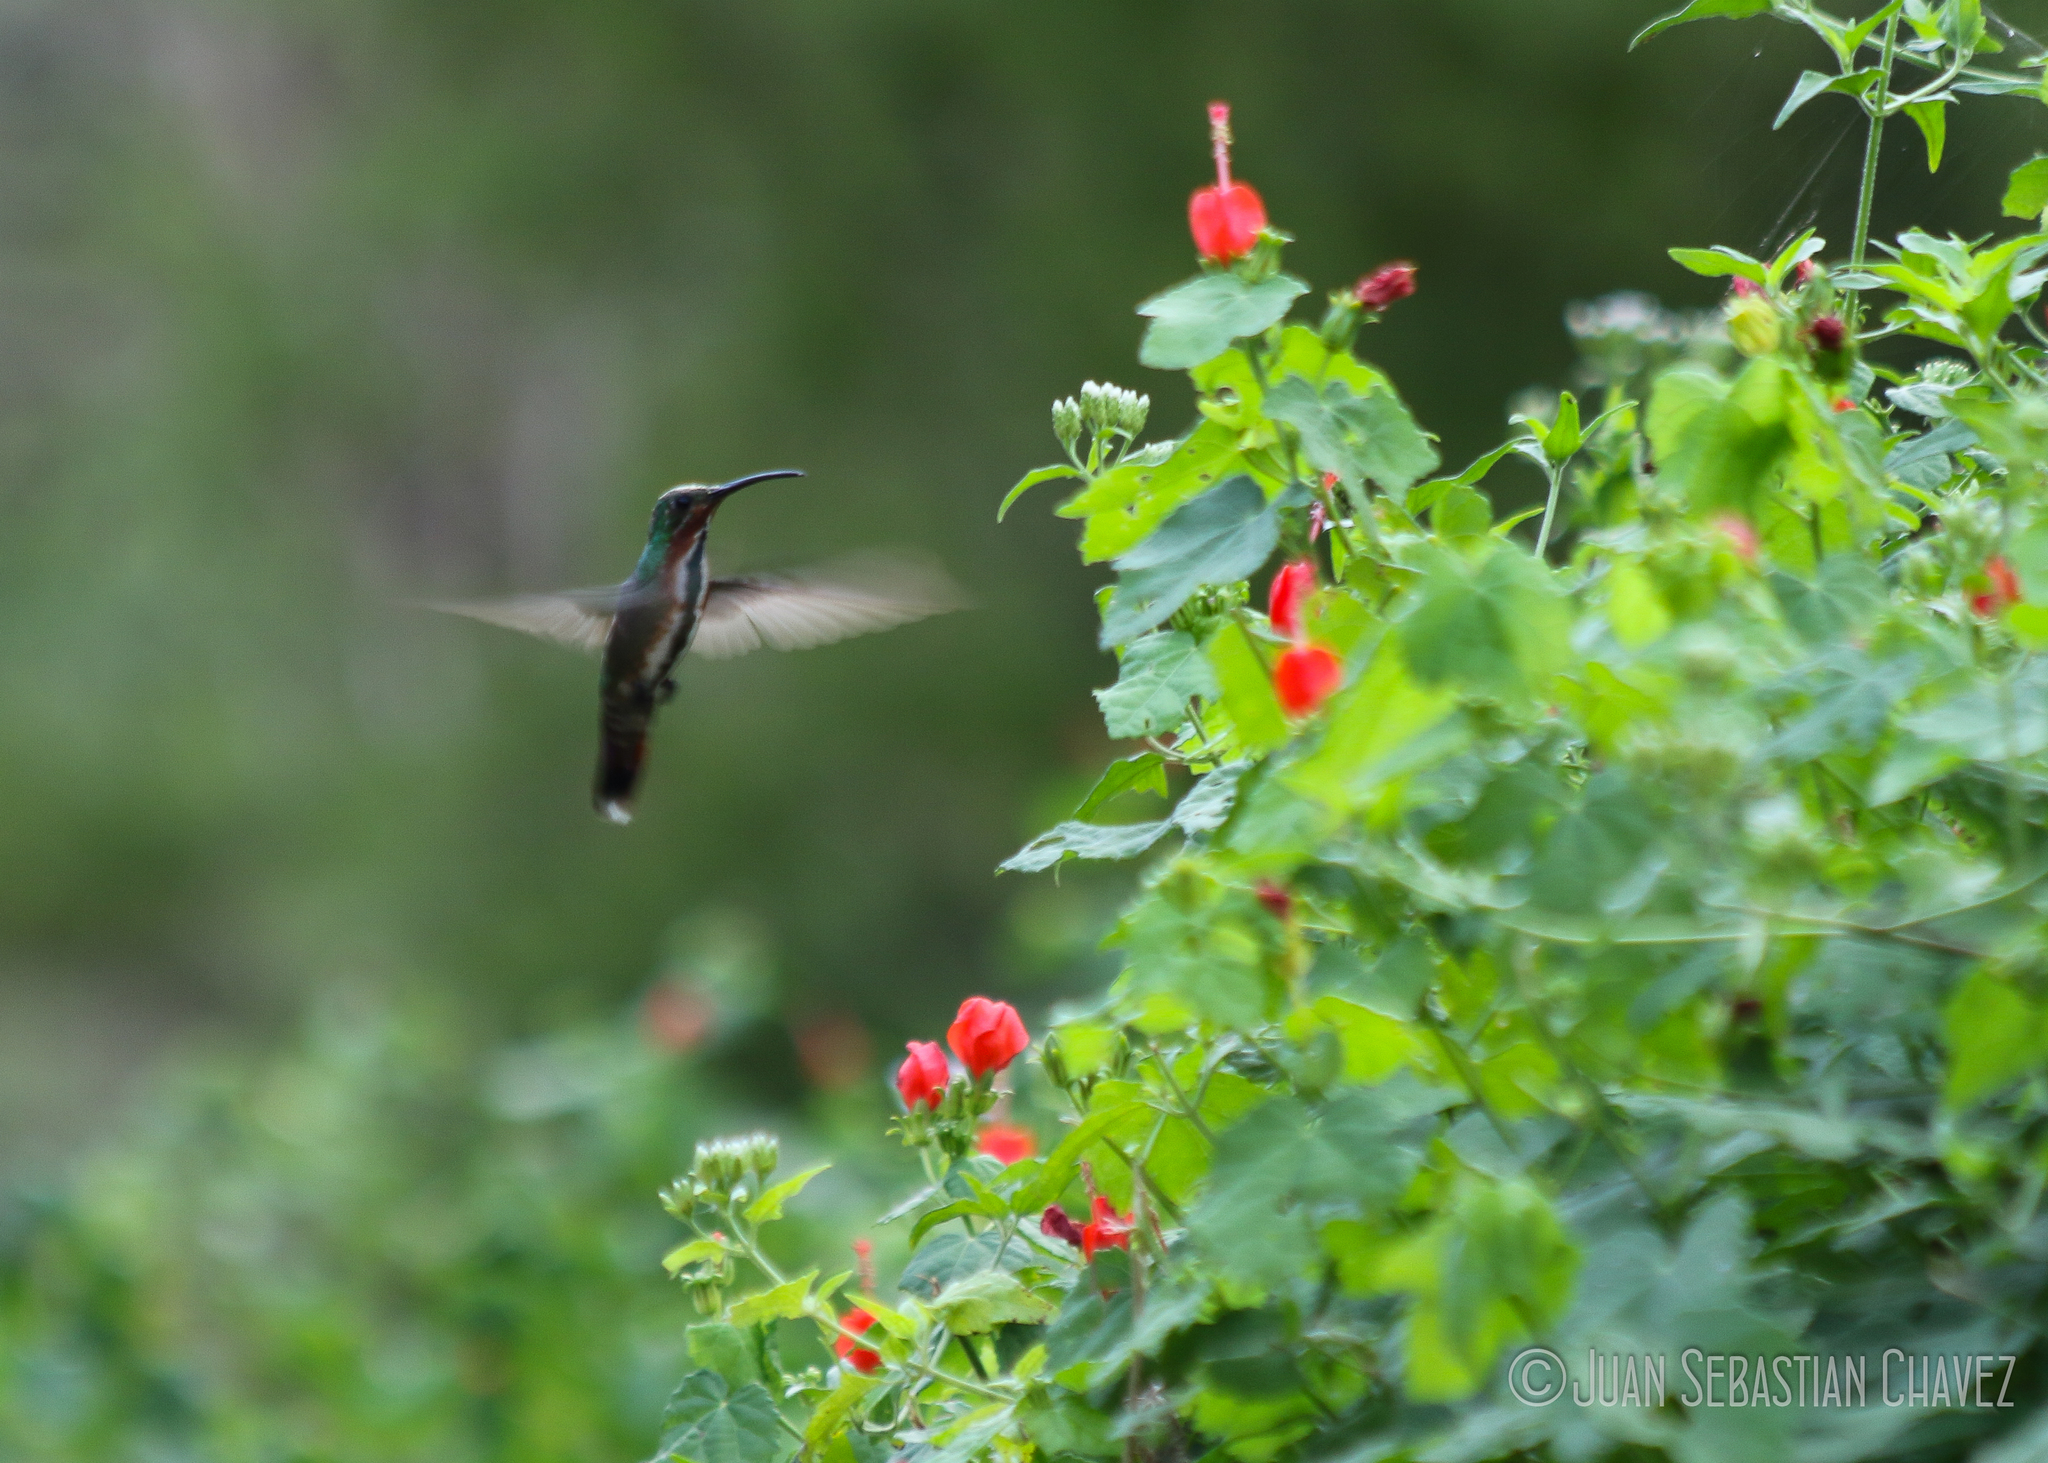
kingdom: Animalia
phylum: Chordata
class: Aves
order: Apodiformes
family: Trochilidae
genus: Anthracothorax
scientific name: Anthracothorax prevostii
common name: Green-breasted mango
